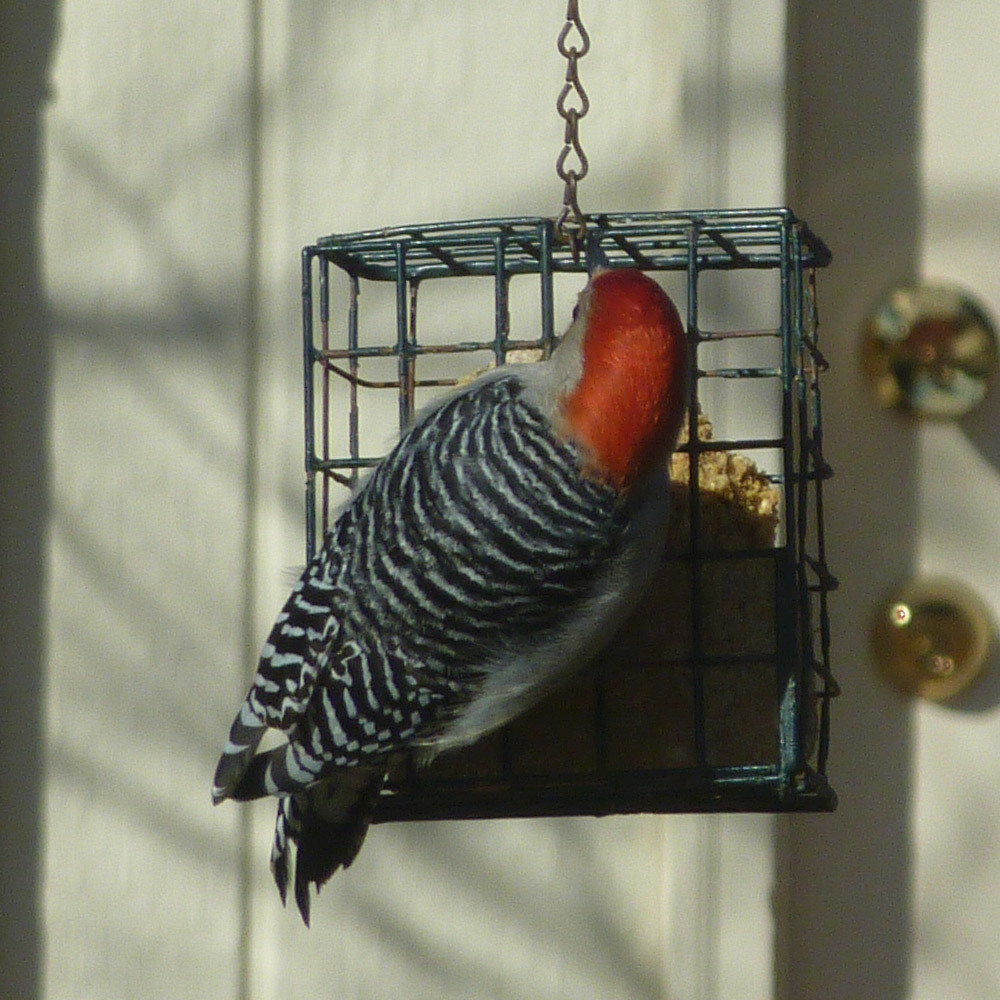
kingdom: Animalia
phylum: Chordata
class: Aves
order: Piciformes
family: Picidae
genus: Melanerpes
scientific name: Melanerpes carolinus
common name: Red-bellied woodpecker
